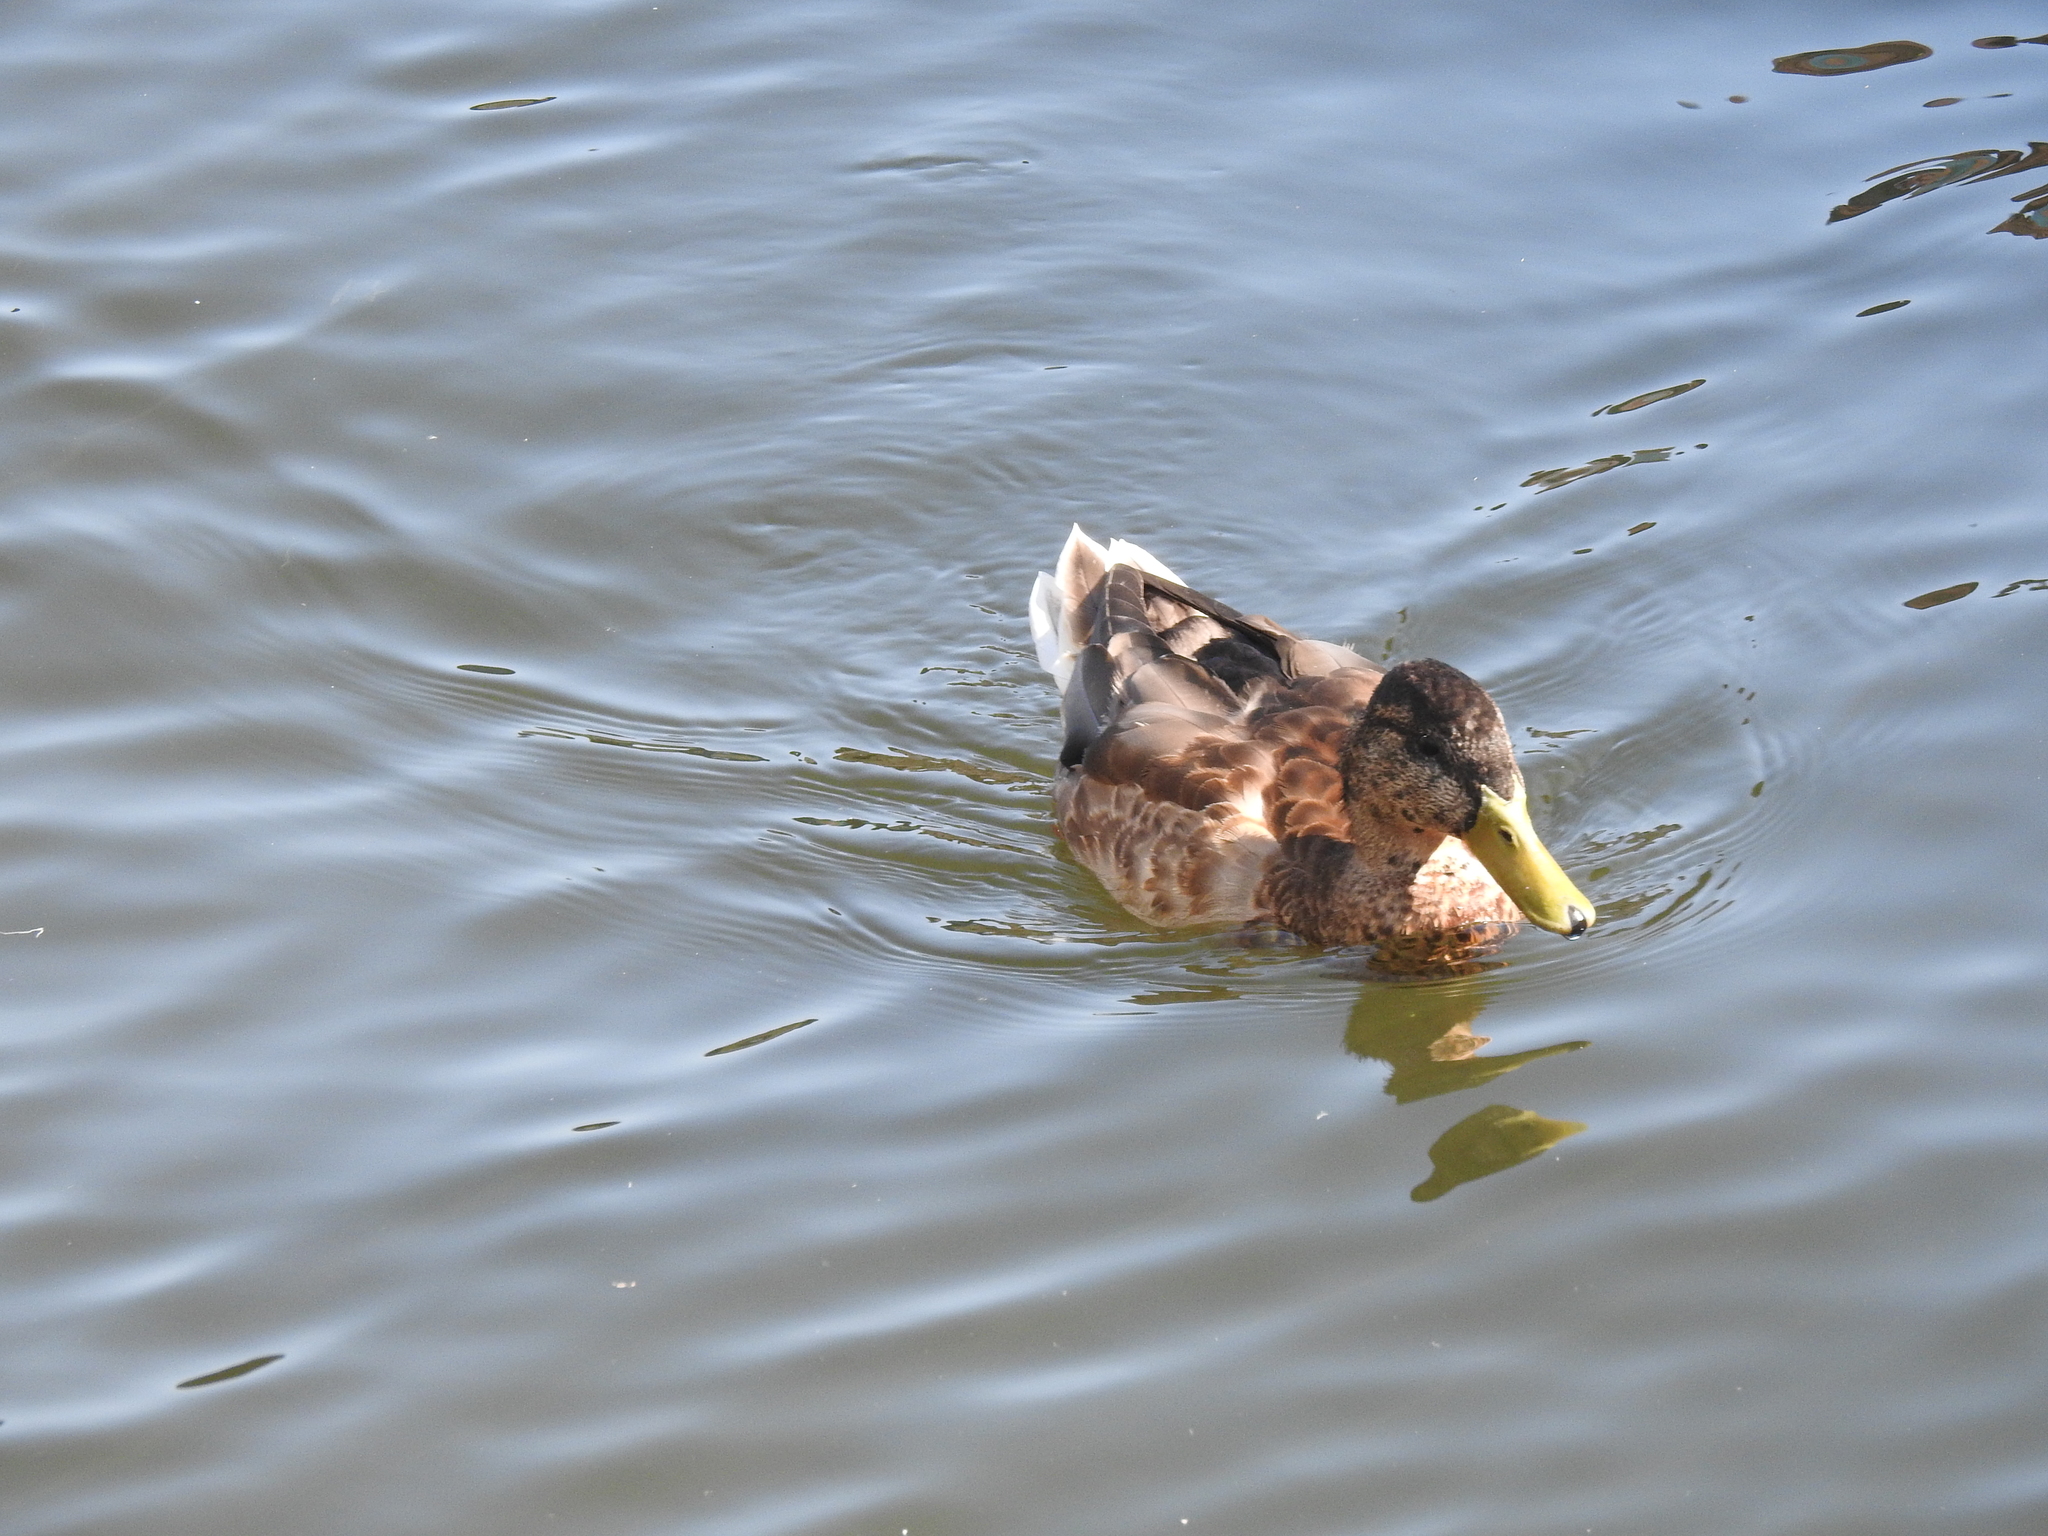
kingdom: Animalia
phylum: Chordata
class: Aves
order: Anseriformes
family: Anatidae
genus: Anas
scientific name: Anas platyrhynchos
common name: Mallard
